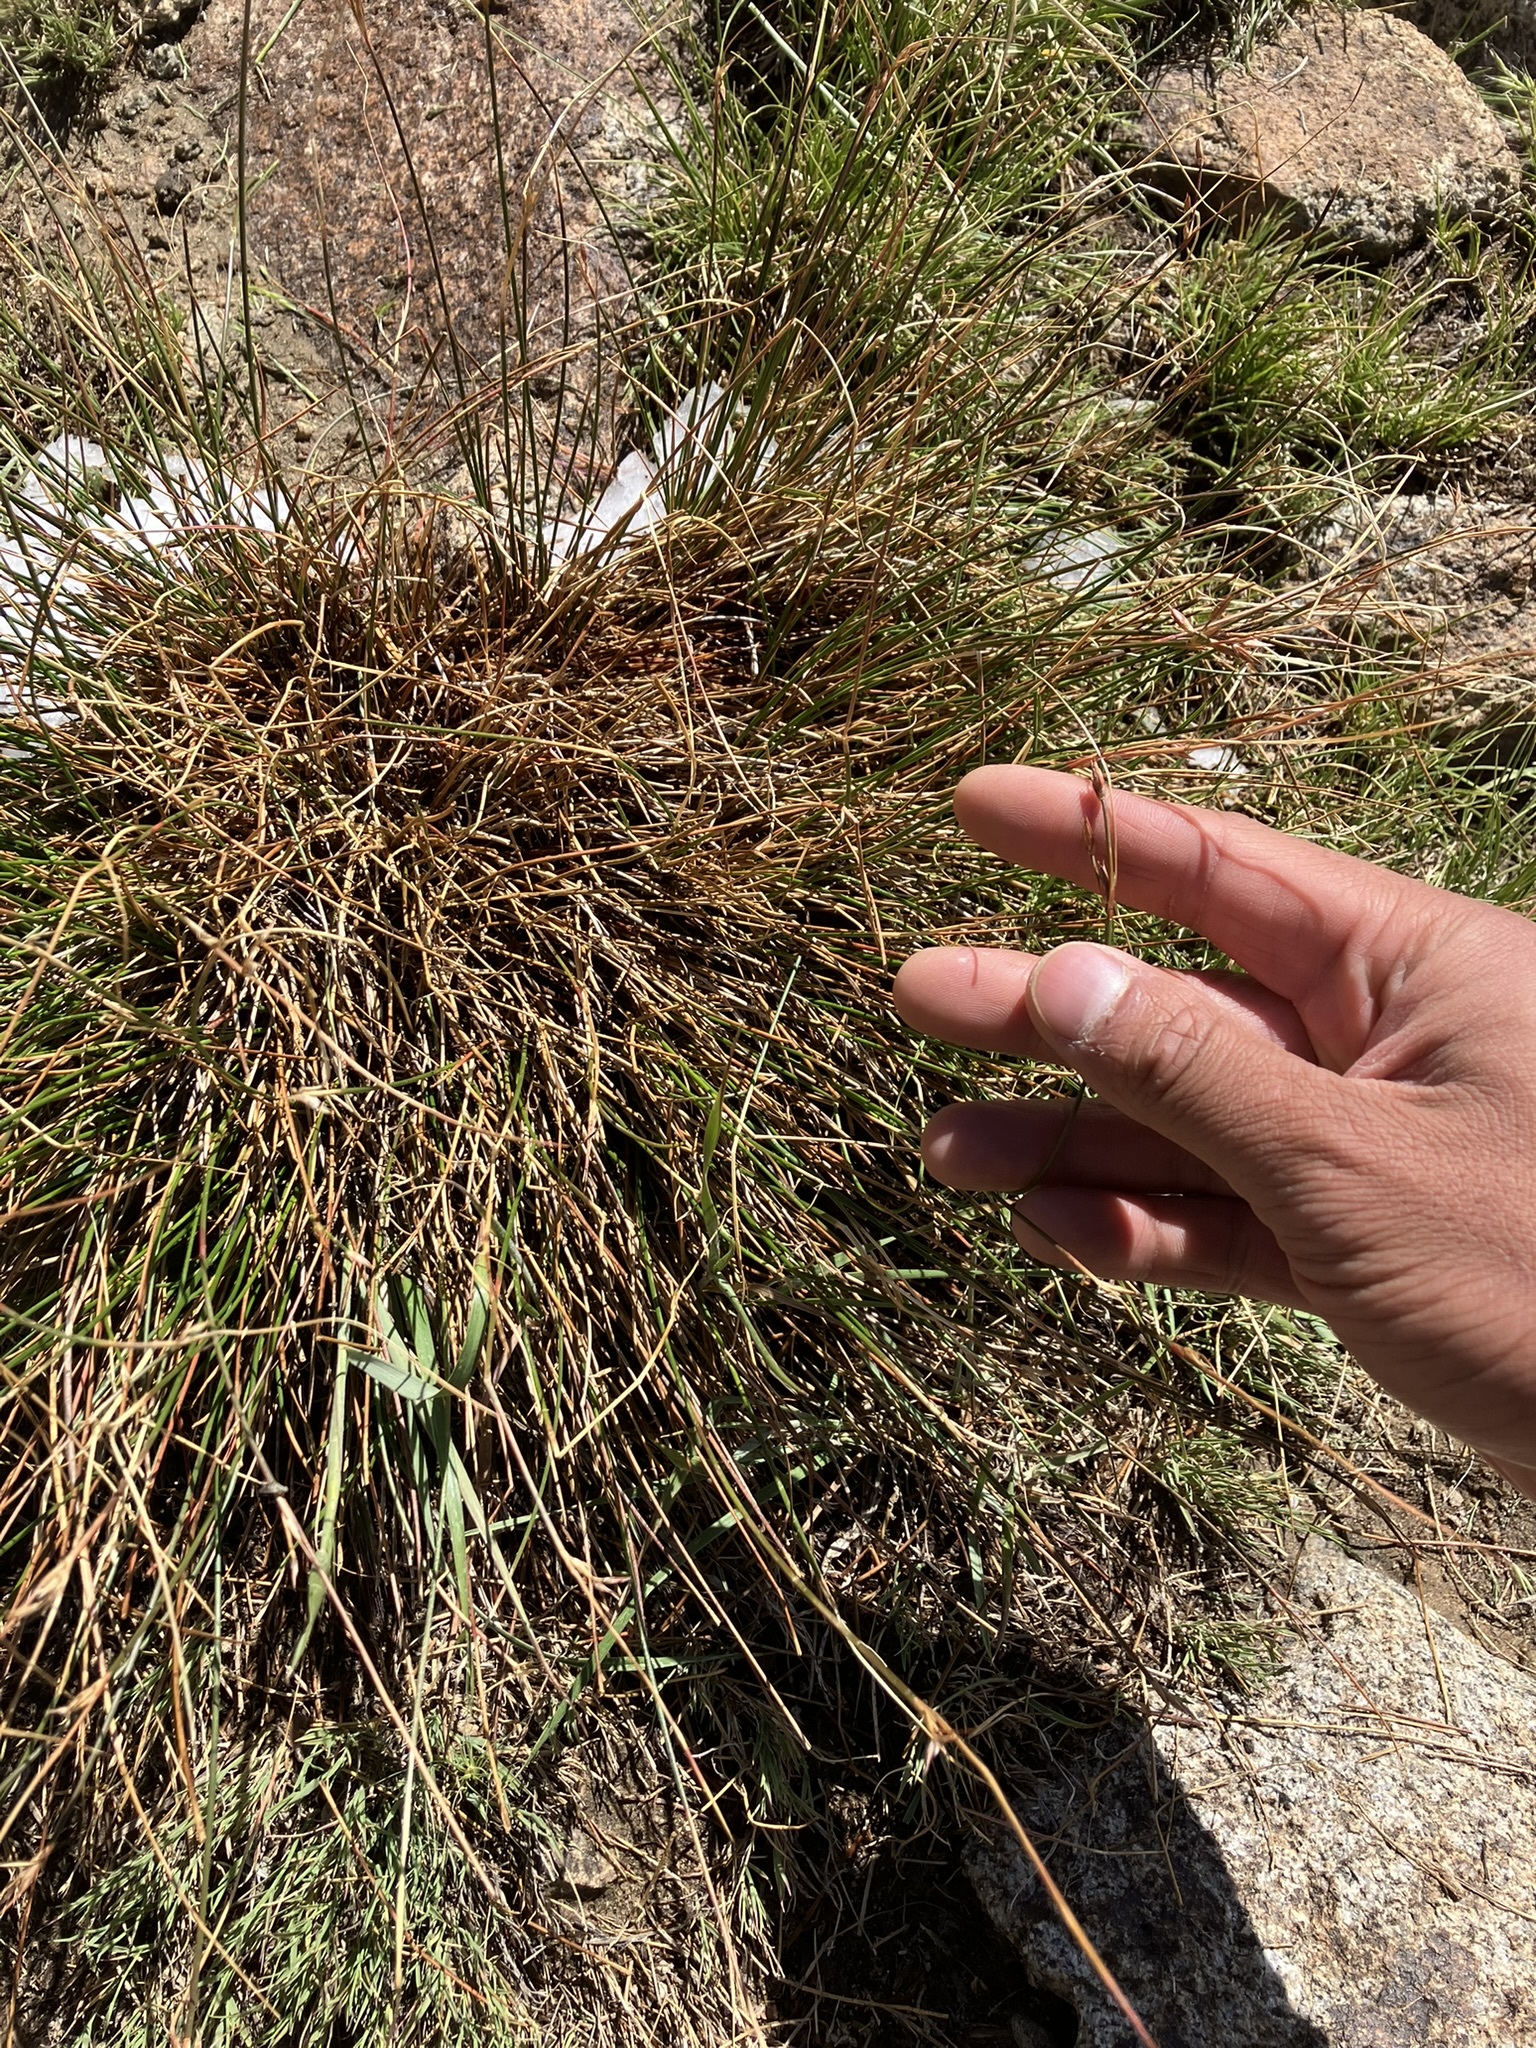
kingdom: Plantae
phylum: Tracheophyta
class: Liliopsida
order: Poales
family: Juncaceae
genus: Juncus
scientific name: Juncus parryi
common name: Parry's rush
